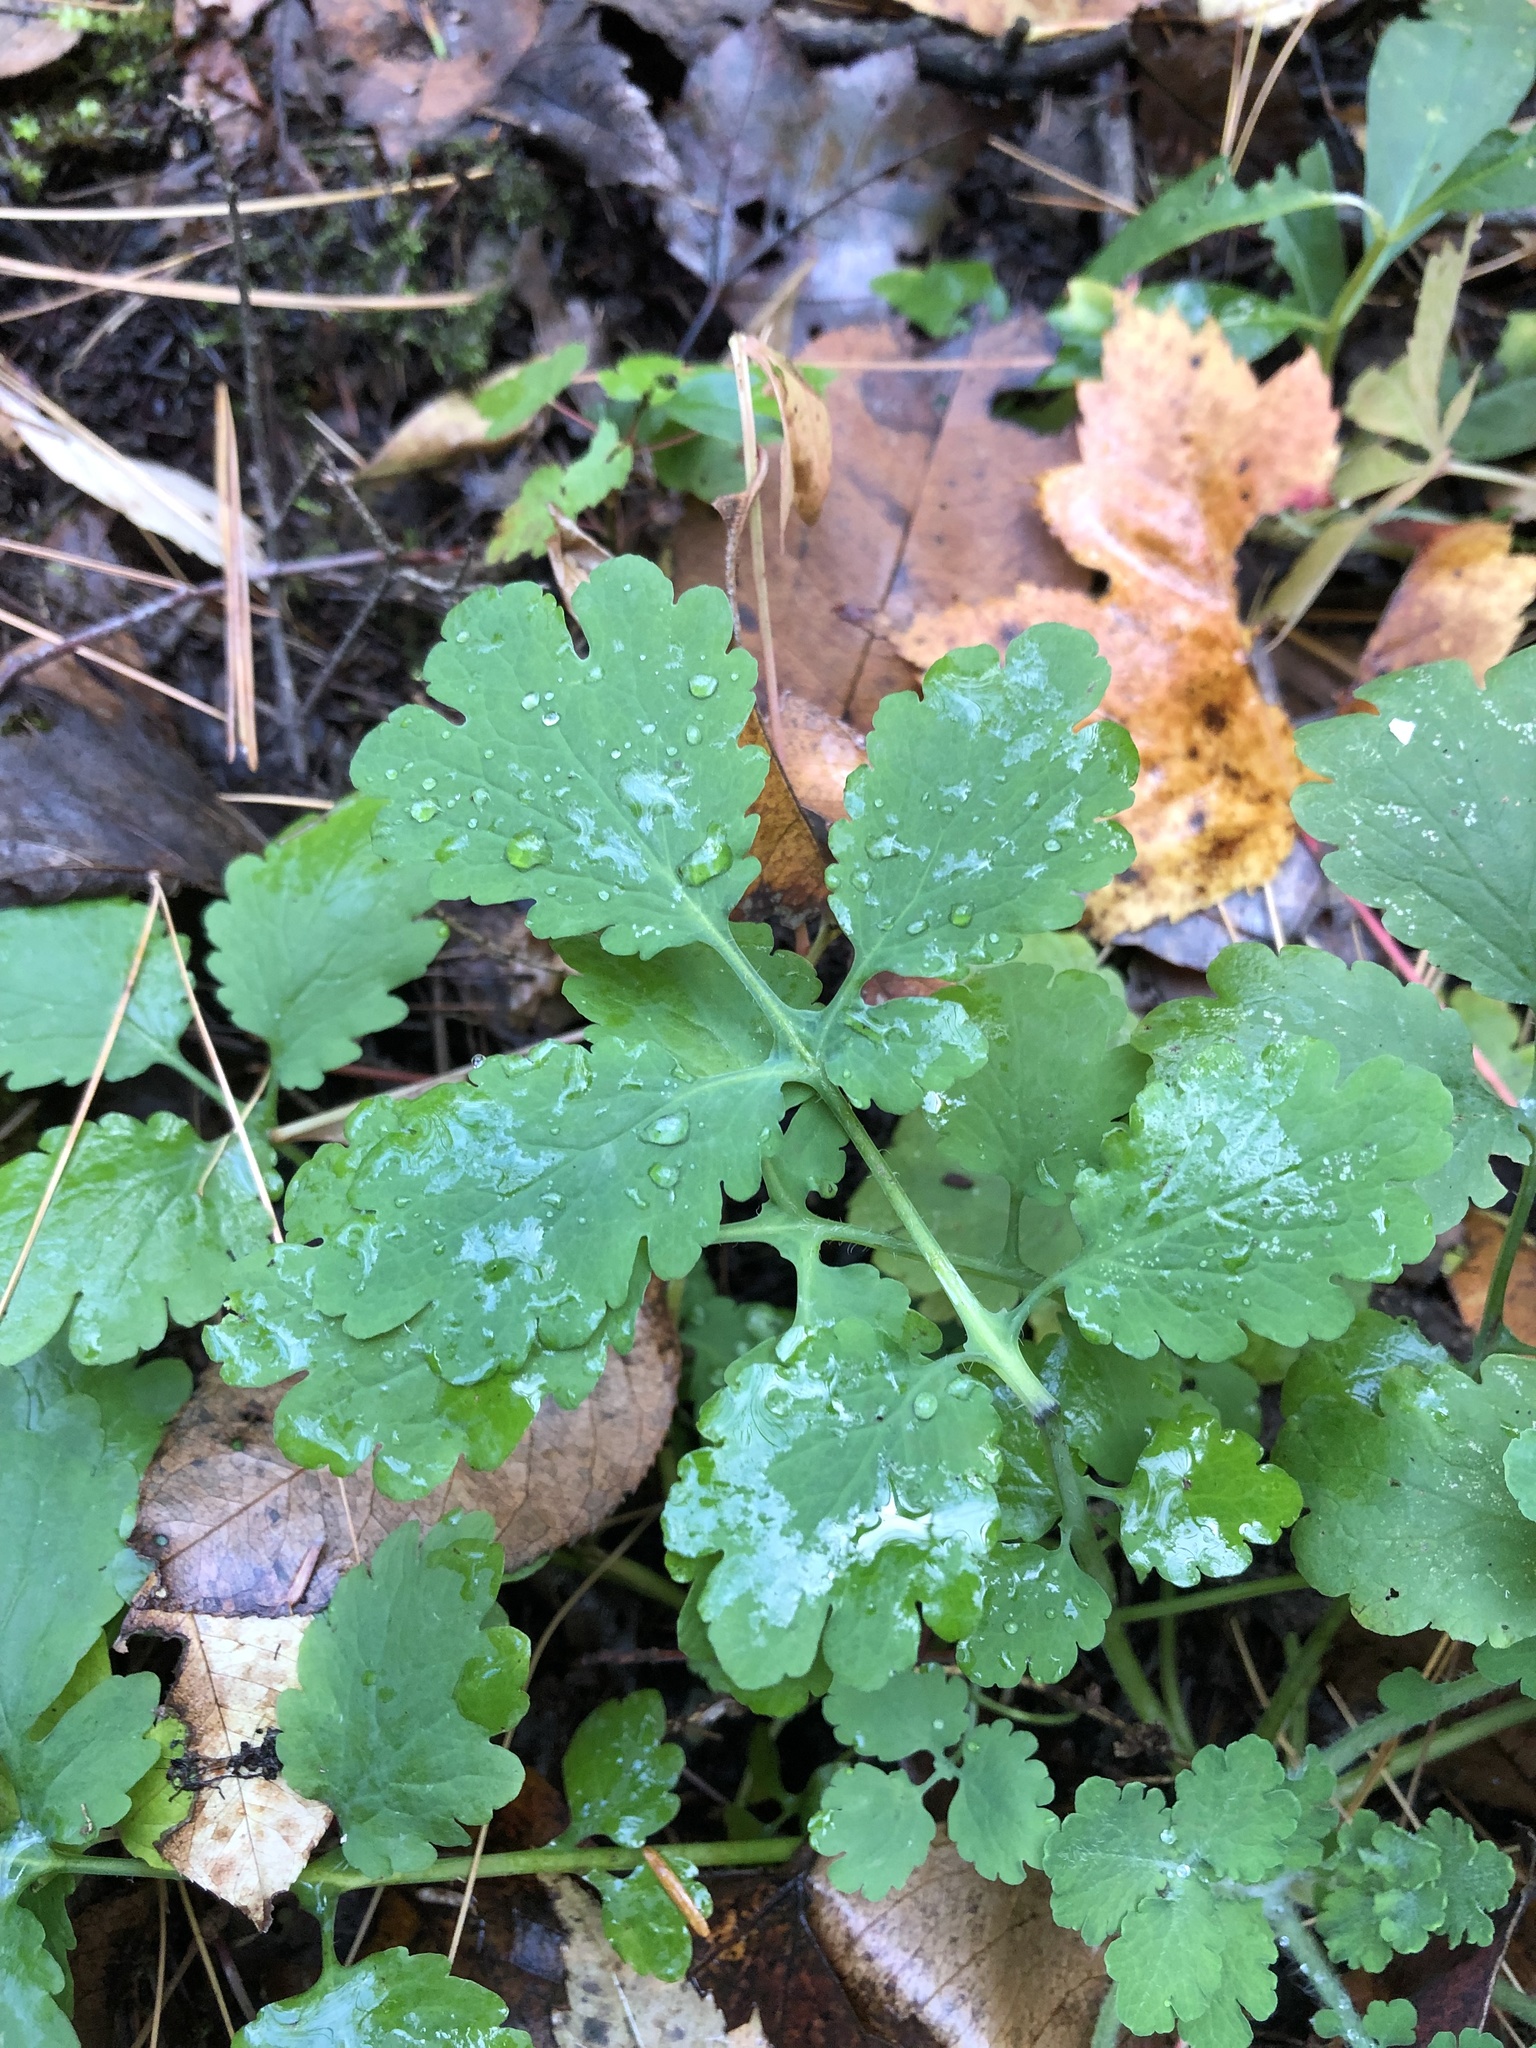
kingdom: Plantae
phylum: Tracheophyta
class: Magnoliopsida
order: Ranunculales
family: Papaveraceae
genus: Chelidonium
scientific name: Chelidonium majus
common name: Greater celandine
